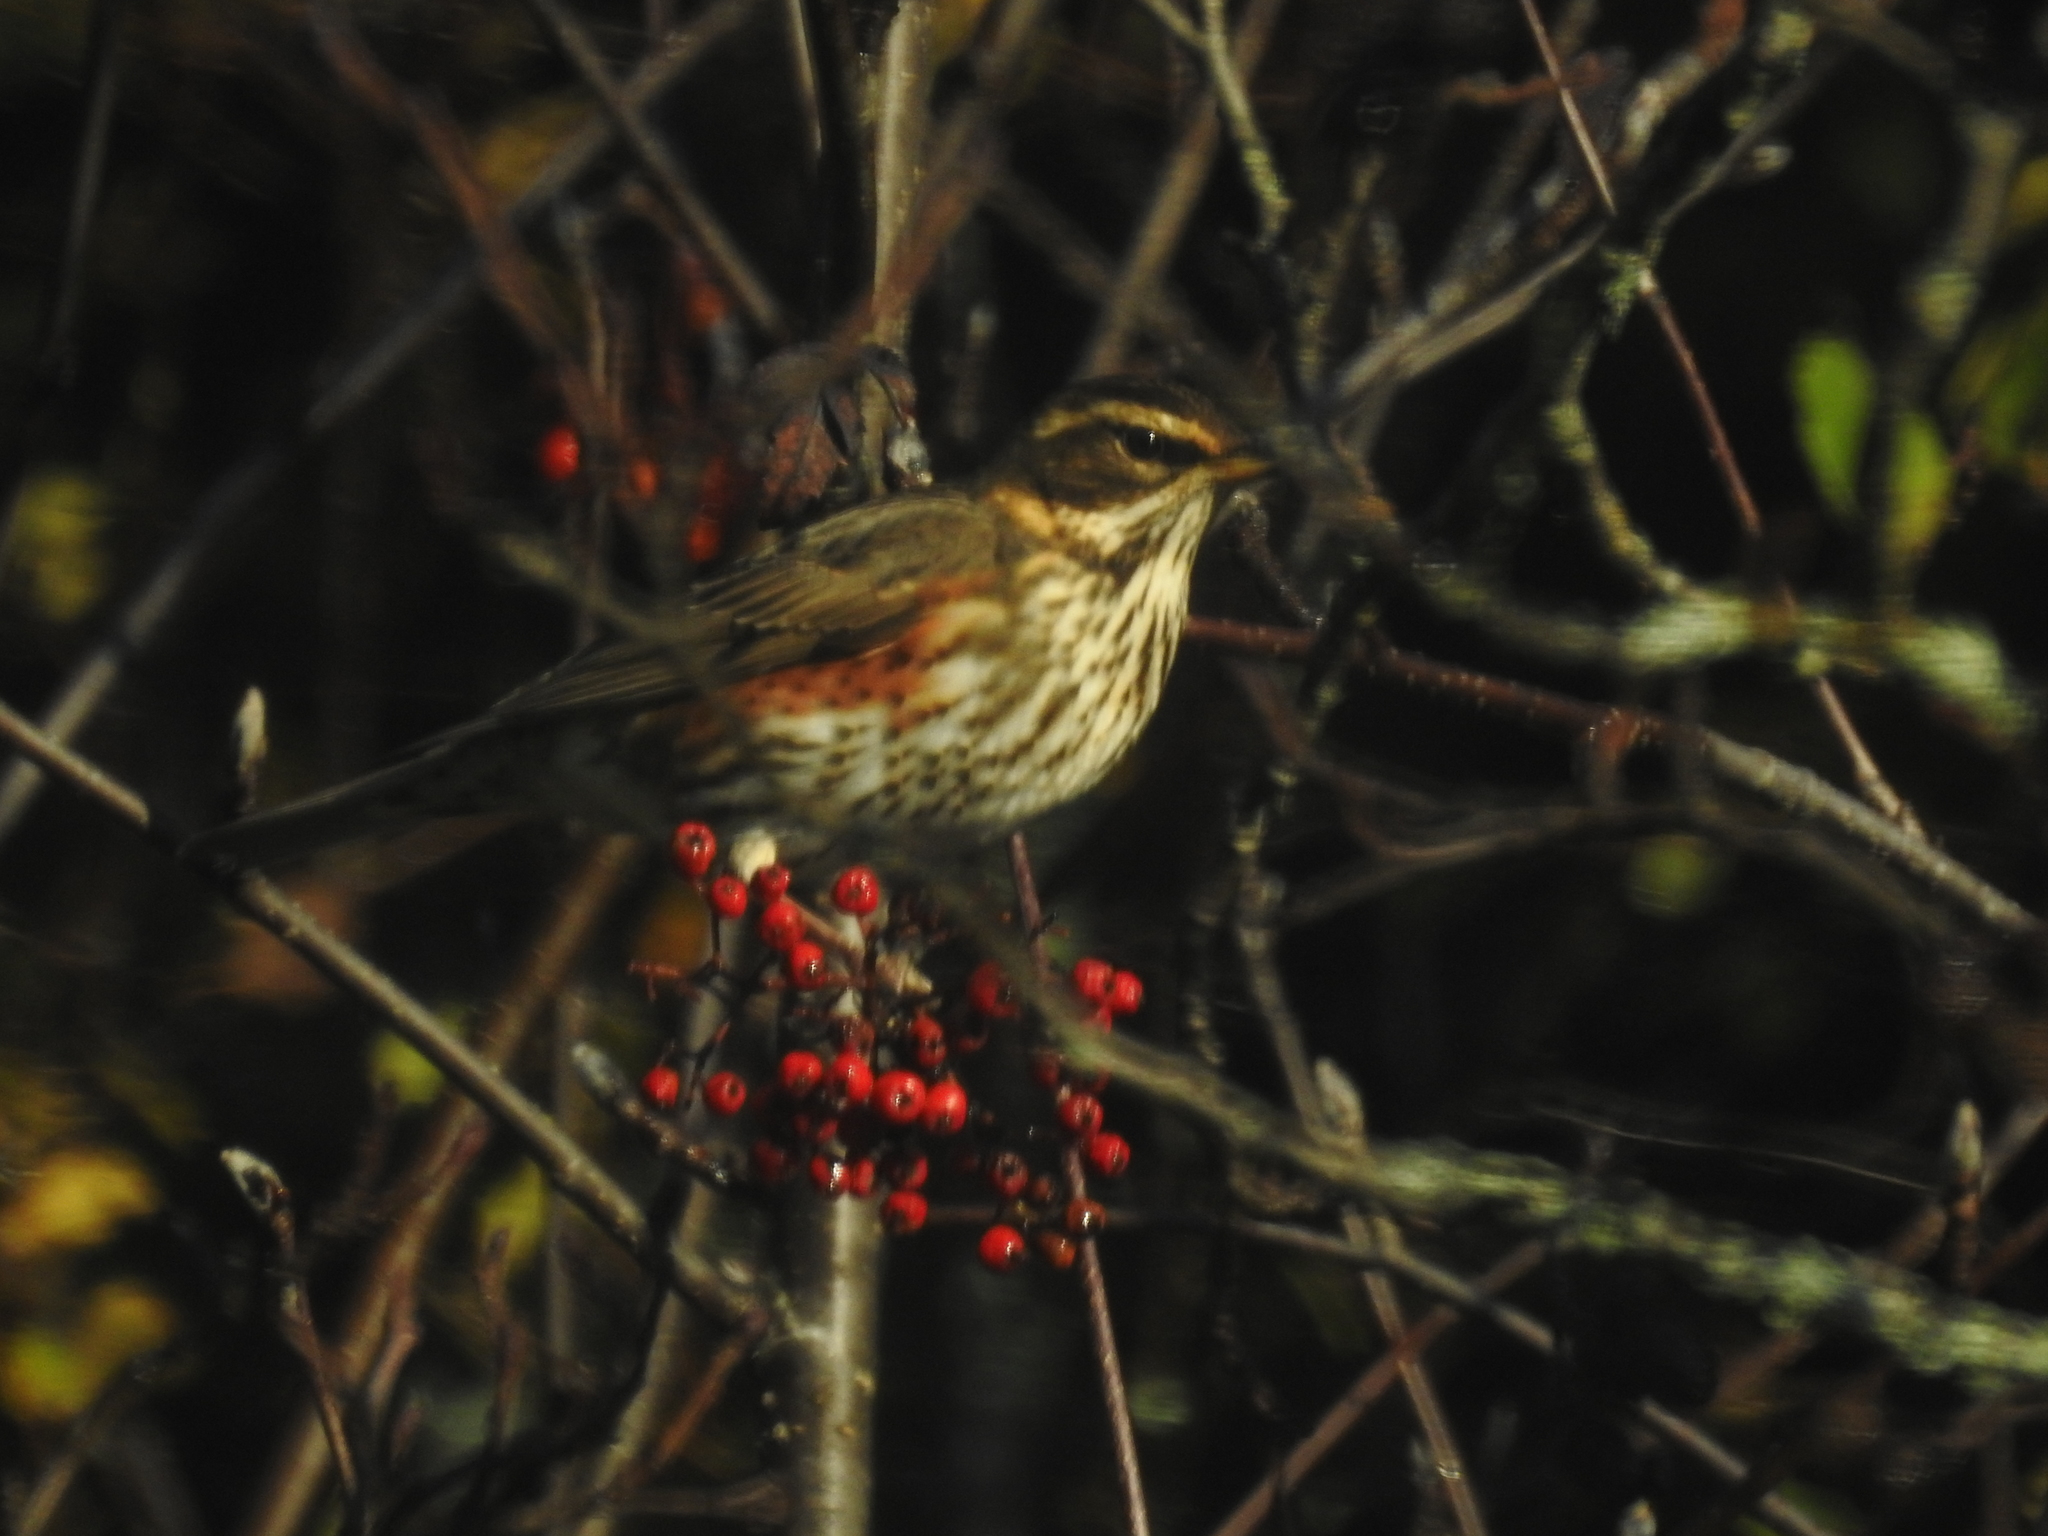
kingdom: Animalia
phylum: Chordata
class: Aves
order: Passeriformes
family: Turdidae
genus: Turdus
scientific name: Turdus iliacus
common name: Redwing
